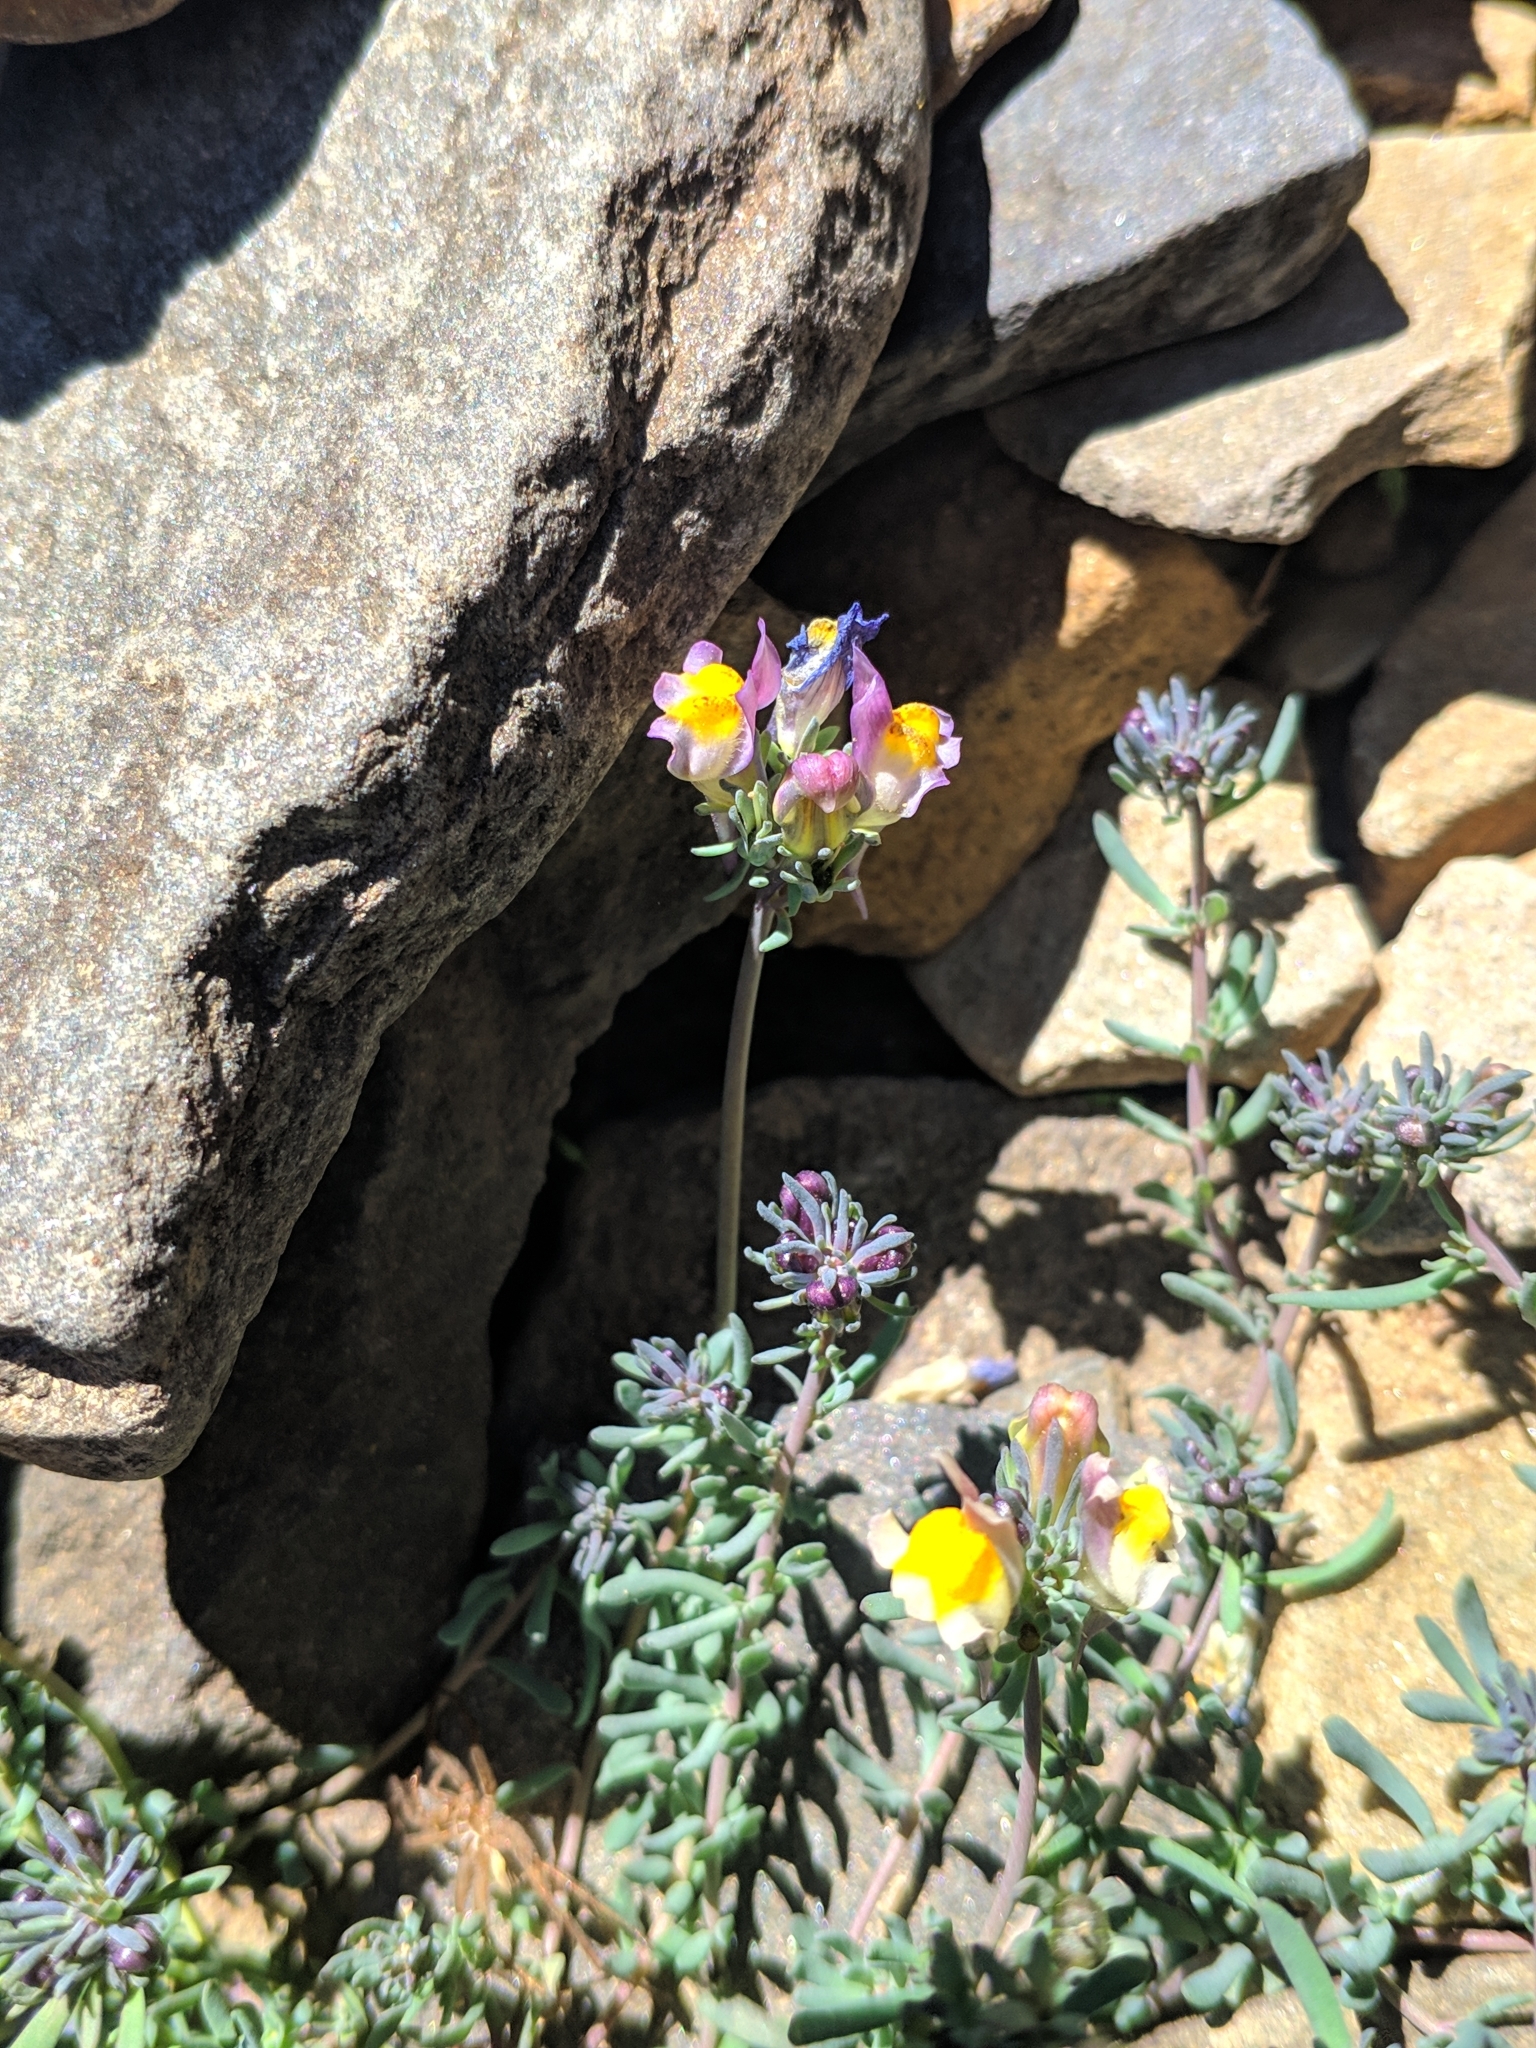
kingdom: Plantae
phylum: Tracheophyta
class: Magnoliopsida
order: Lamiales
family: Plantaginaceae
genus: Linaria
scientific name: Linaria alpina
